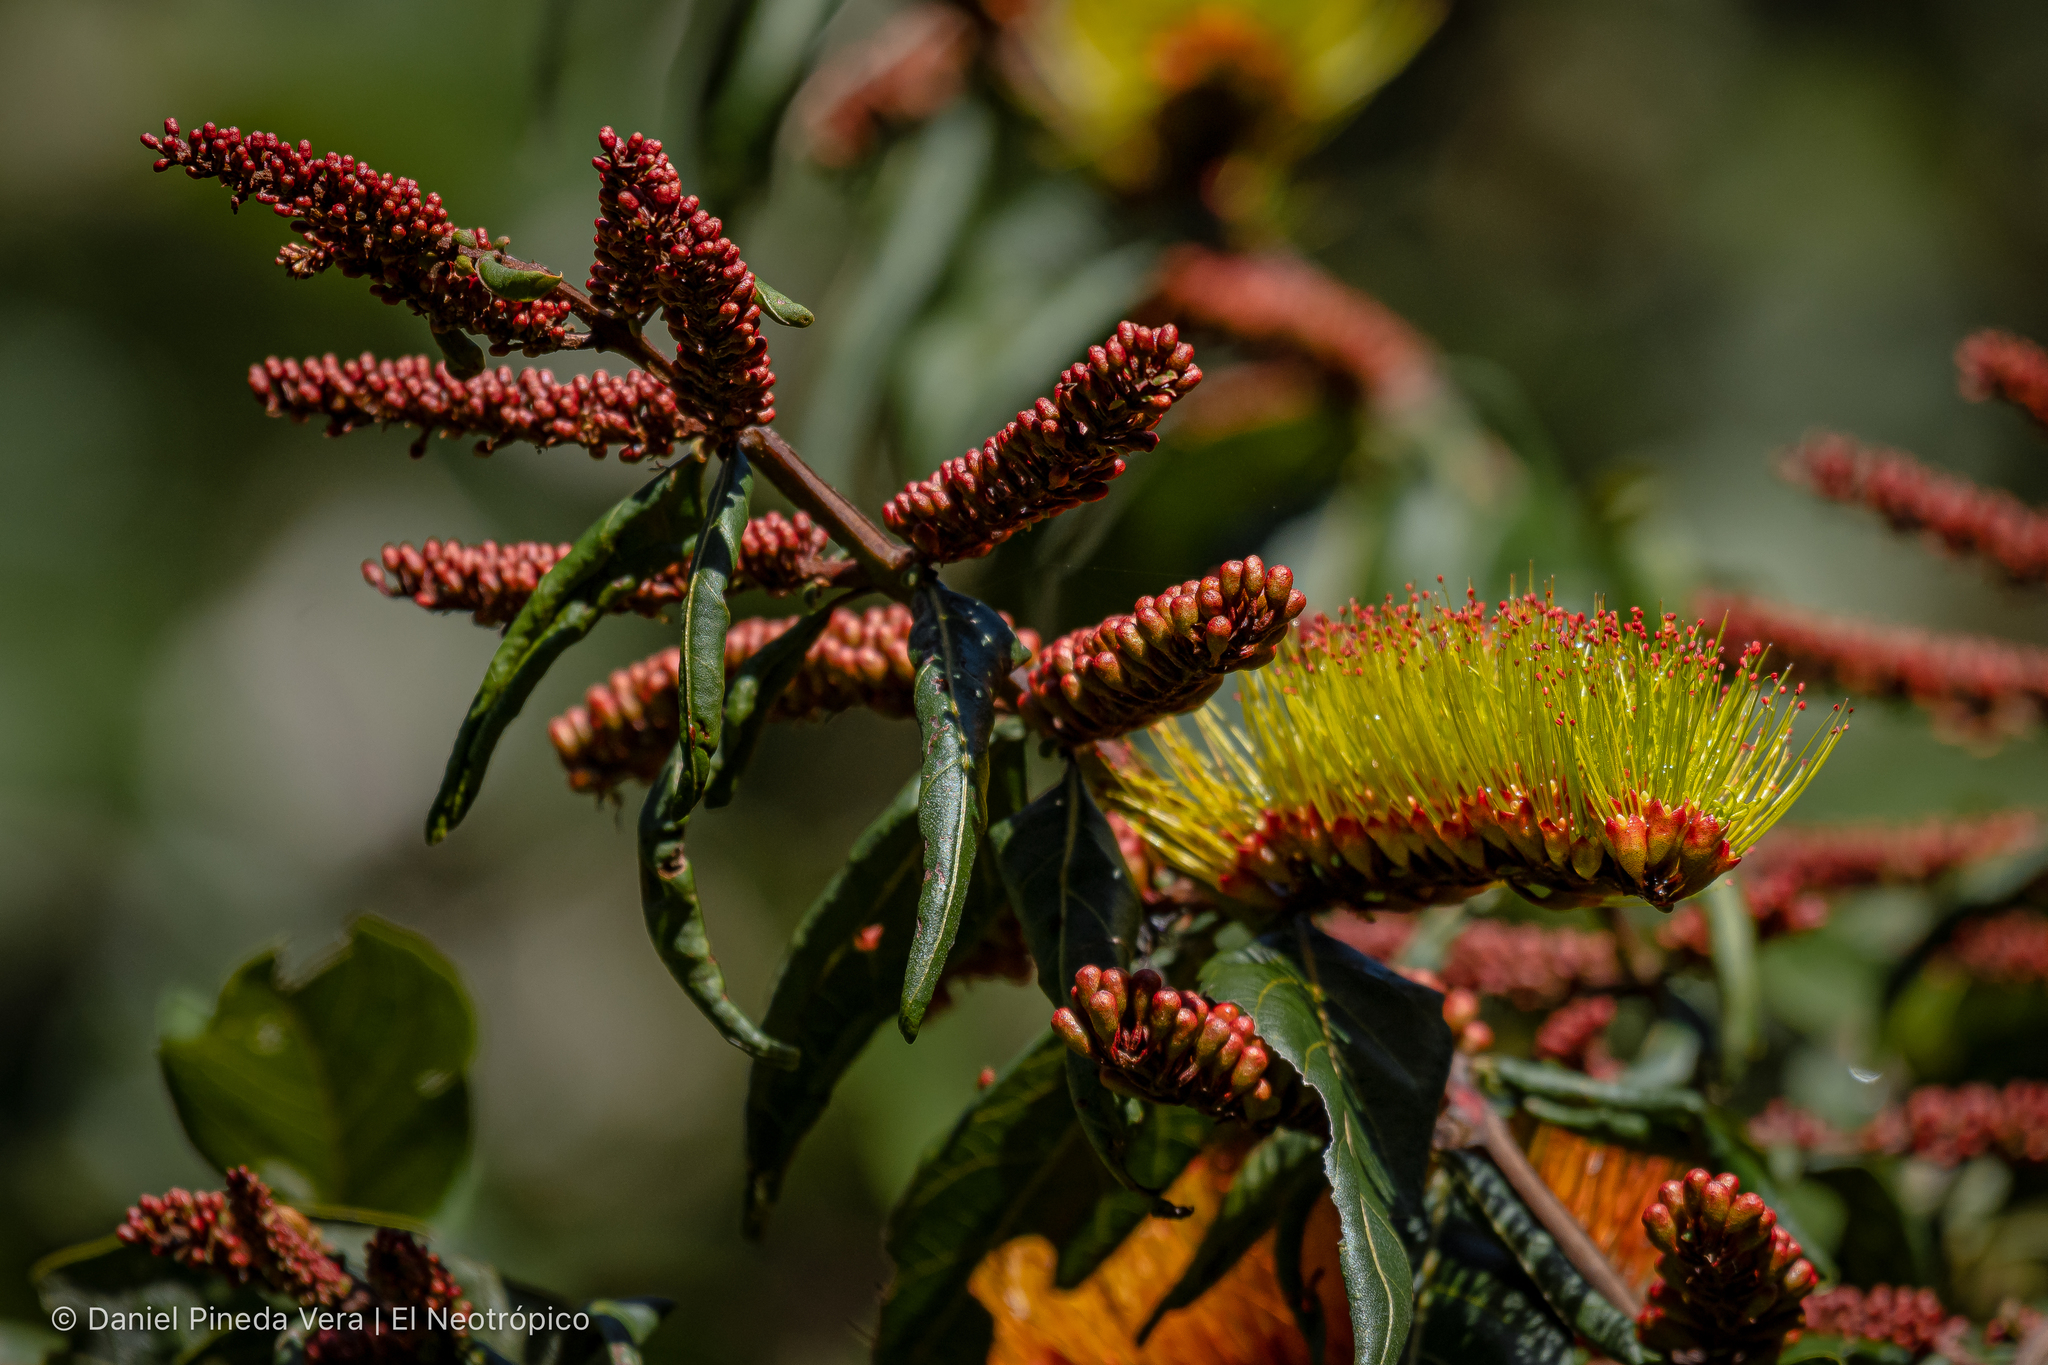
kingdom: Plantae
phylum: Tracheophyta
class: Magnoliopsida
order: Myrtales
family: Combretaceae
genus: Combretum
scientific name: Combretum farinosum
